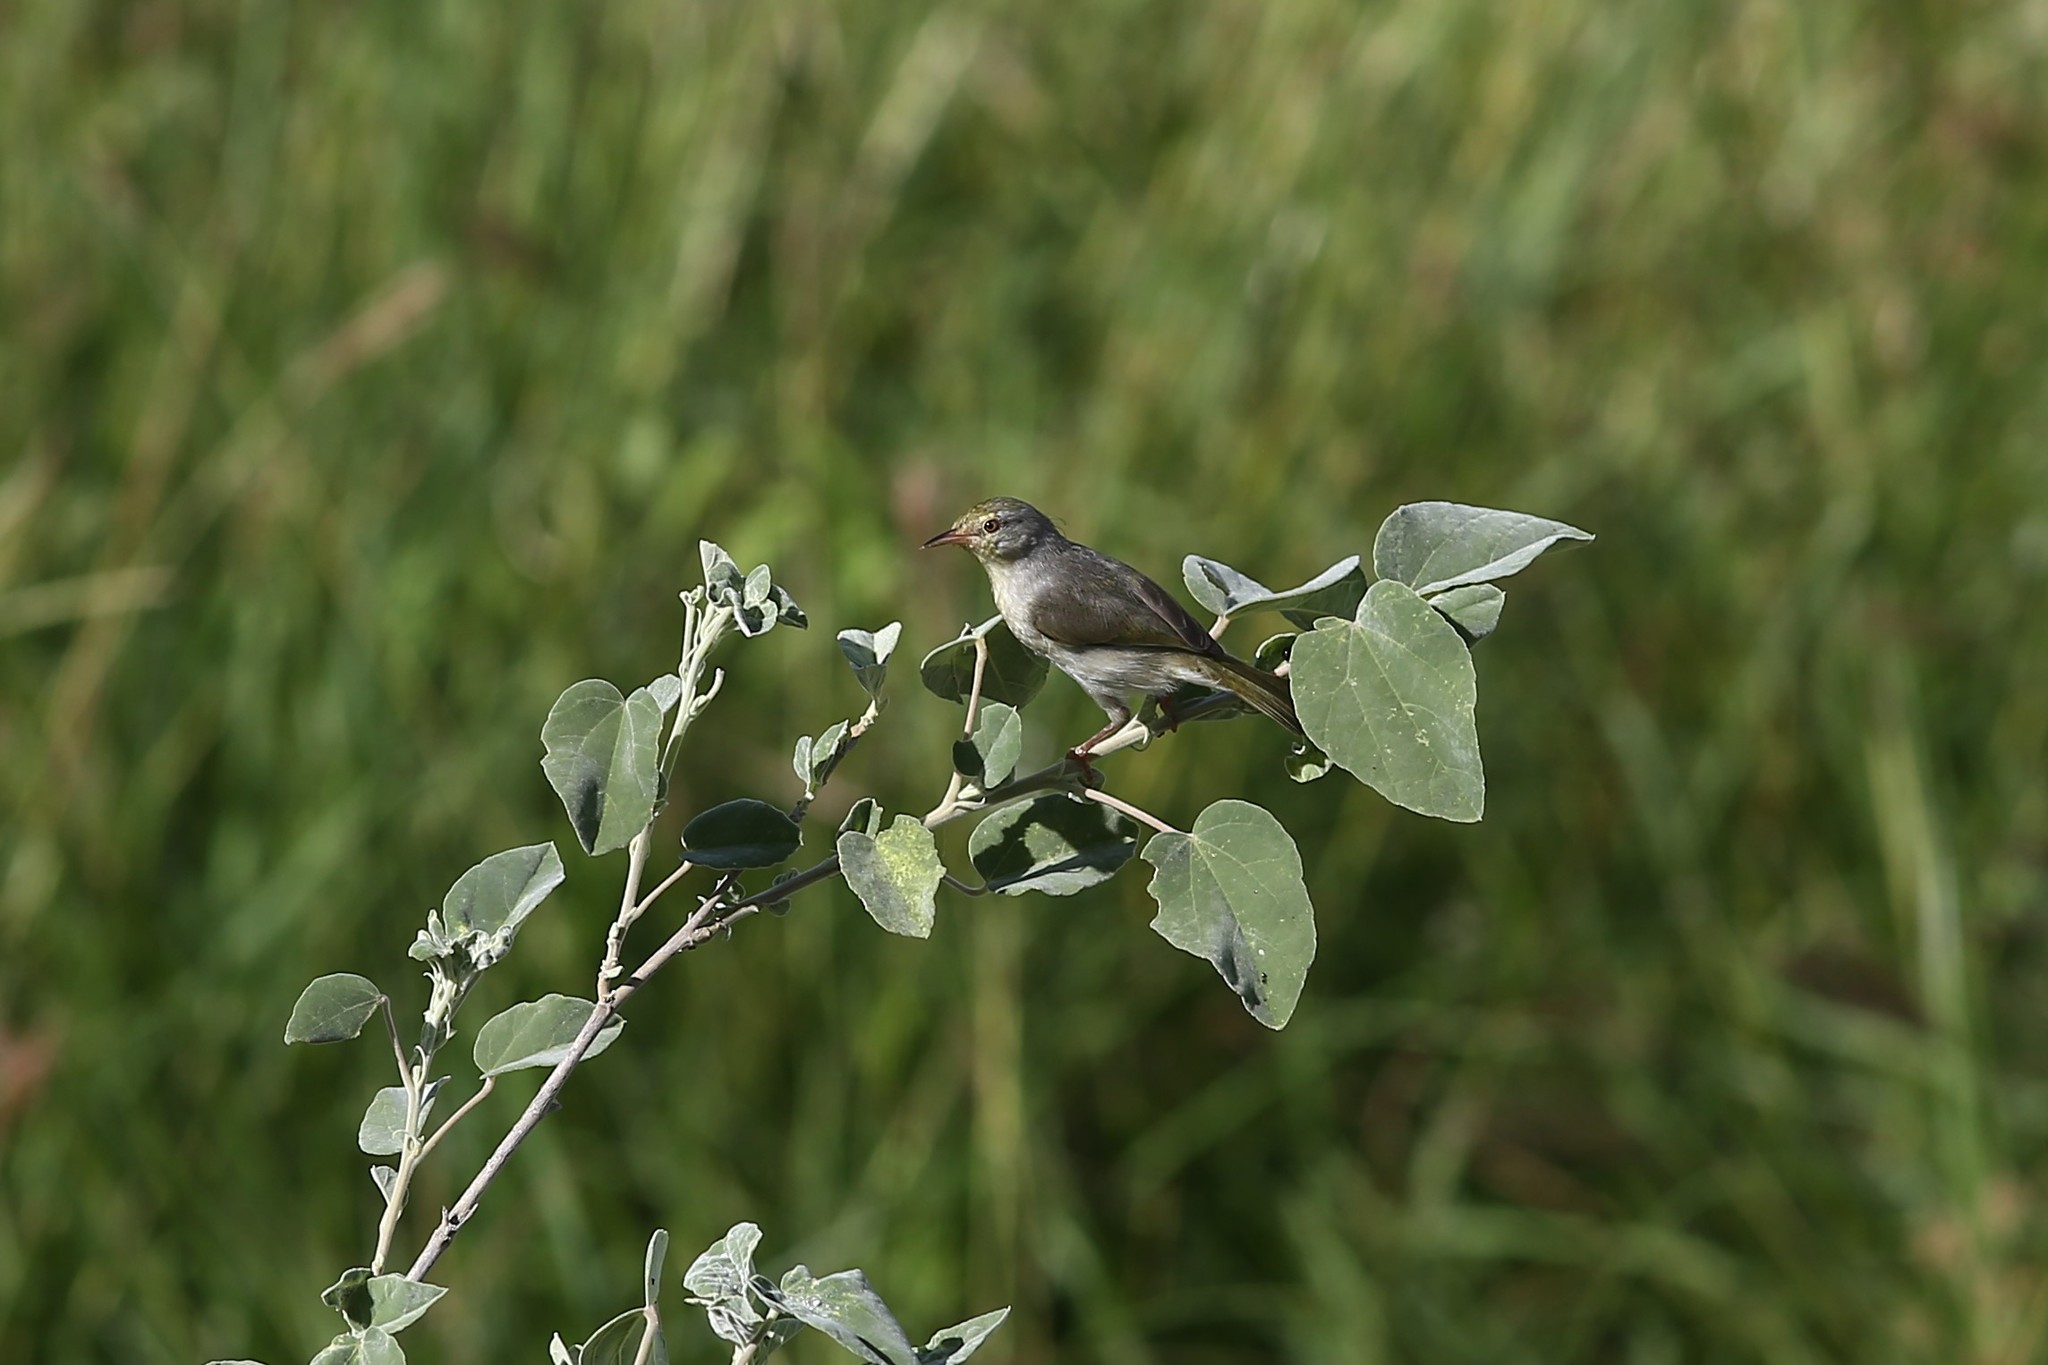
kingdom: Animalia
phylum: Chordata
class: Aves
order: Passeriformes
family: Cisticolidae
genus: Neomixis
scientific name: Neomixis tenella
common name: Common jery
